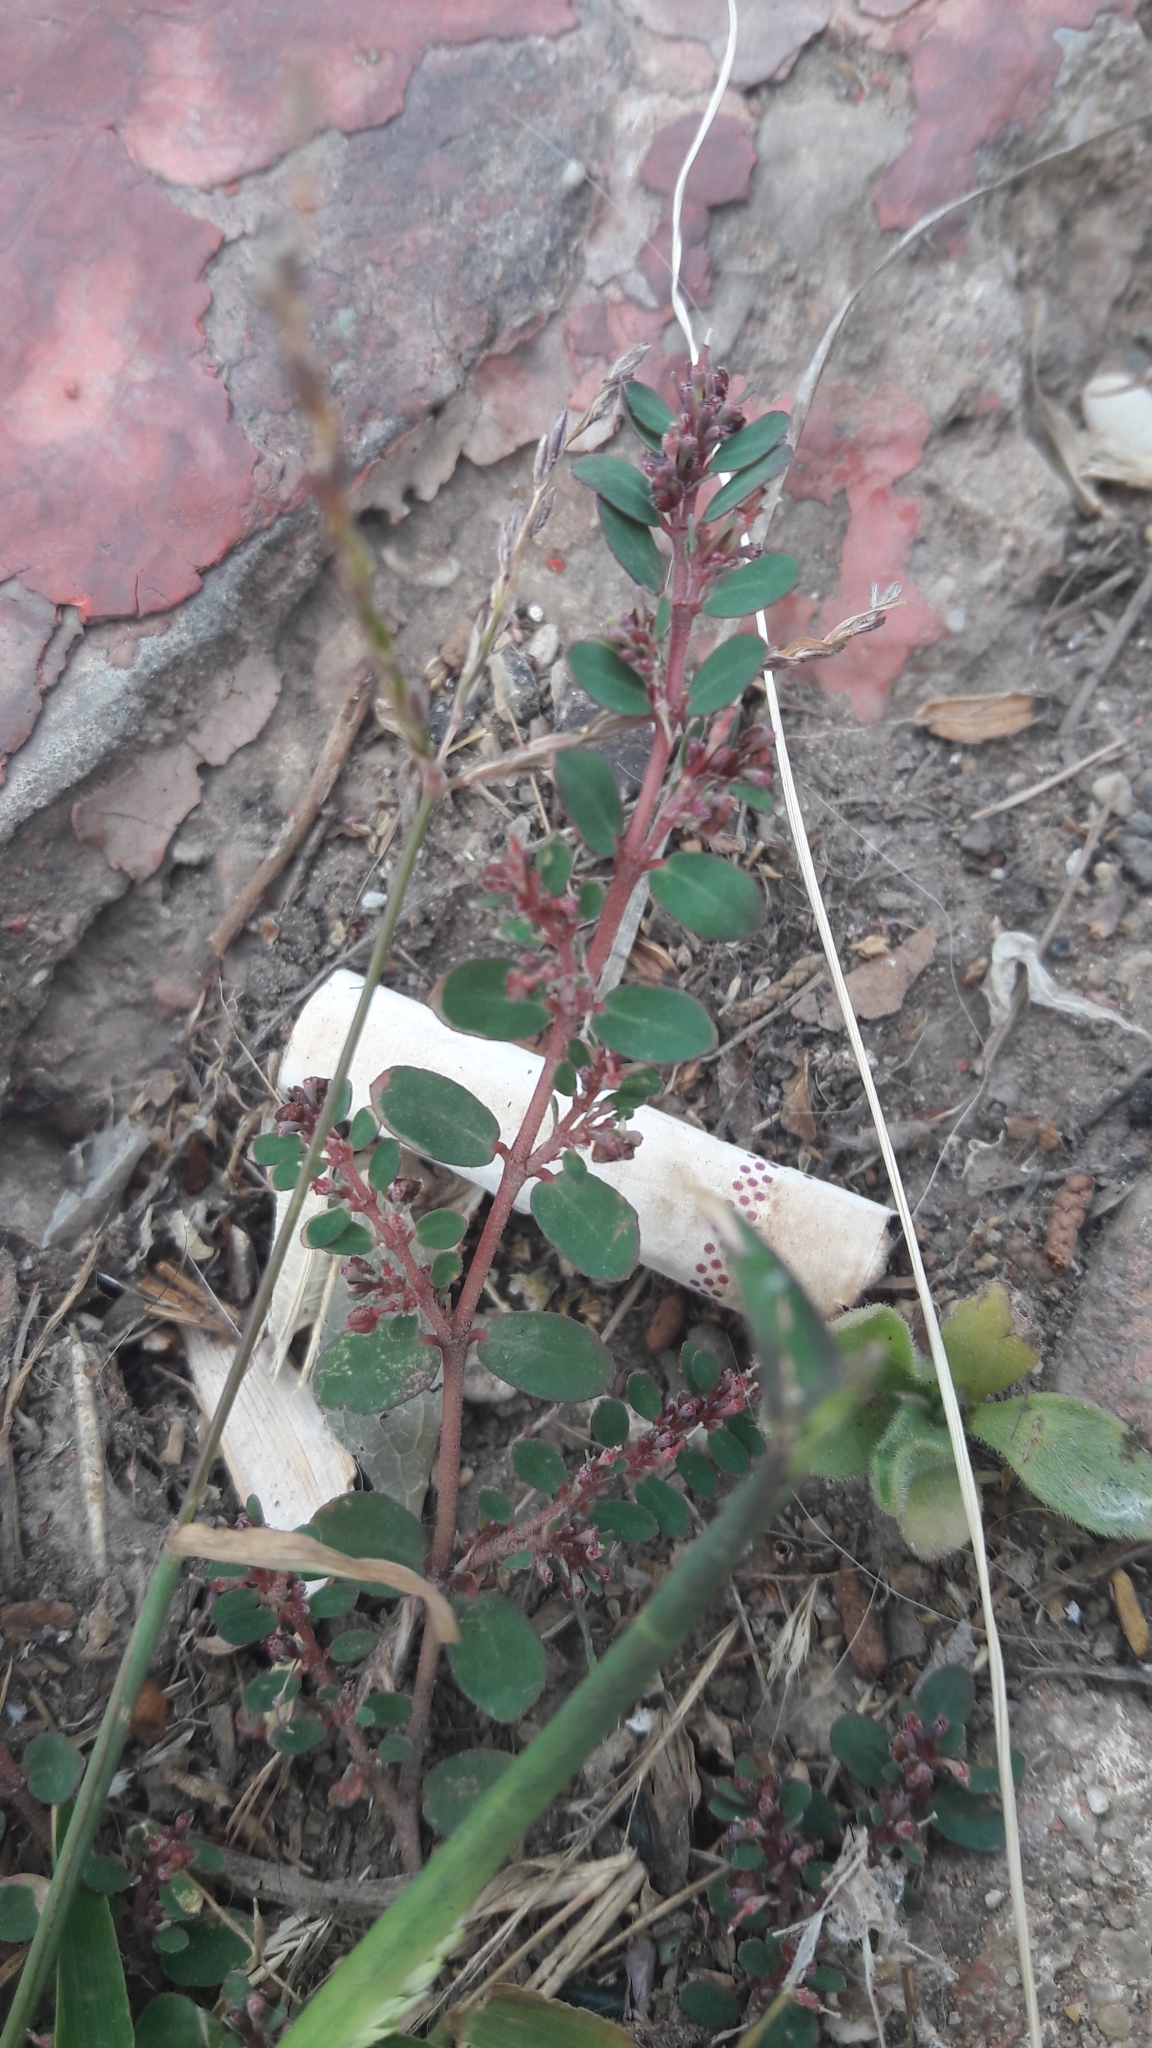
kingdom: Plantae
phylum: Tracheophyta
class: Magnoliopsida
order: Malpighiales
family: Euphorbiaceae
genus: Euphorbia
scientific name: Euphorbia prostrata
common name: Prostrate sandmat
